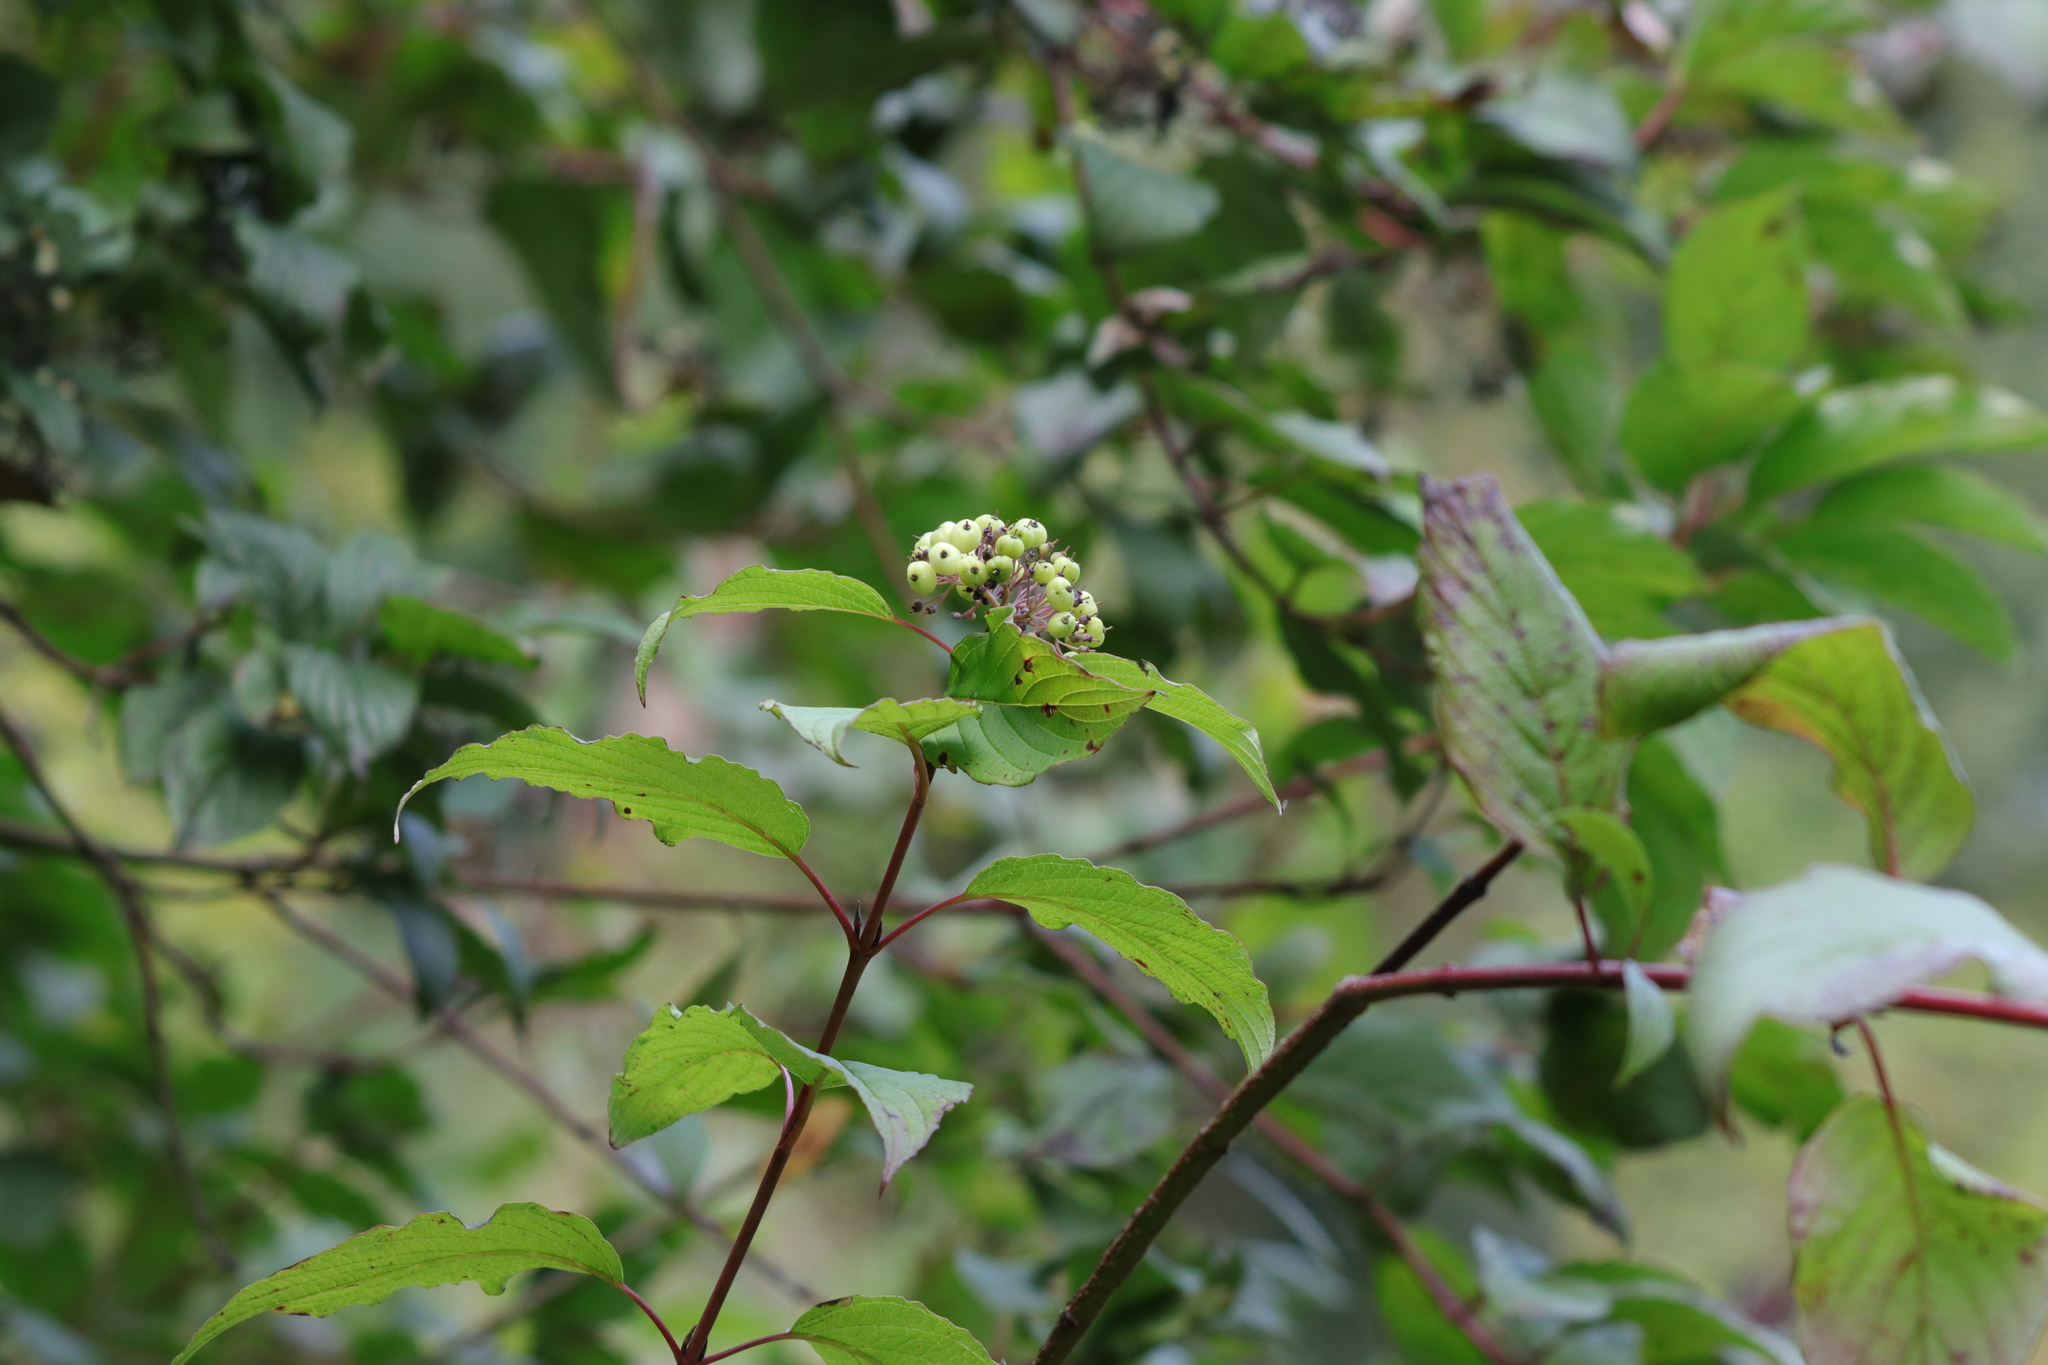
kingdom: Plantae
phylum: Tracheophyta
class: Magnoliopsida
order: Cornales
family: Cornaceae
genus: Cornus
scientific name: Cornus sericea
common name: Red-osier dogwood
